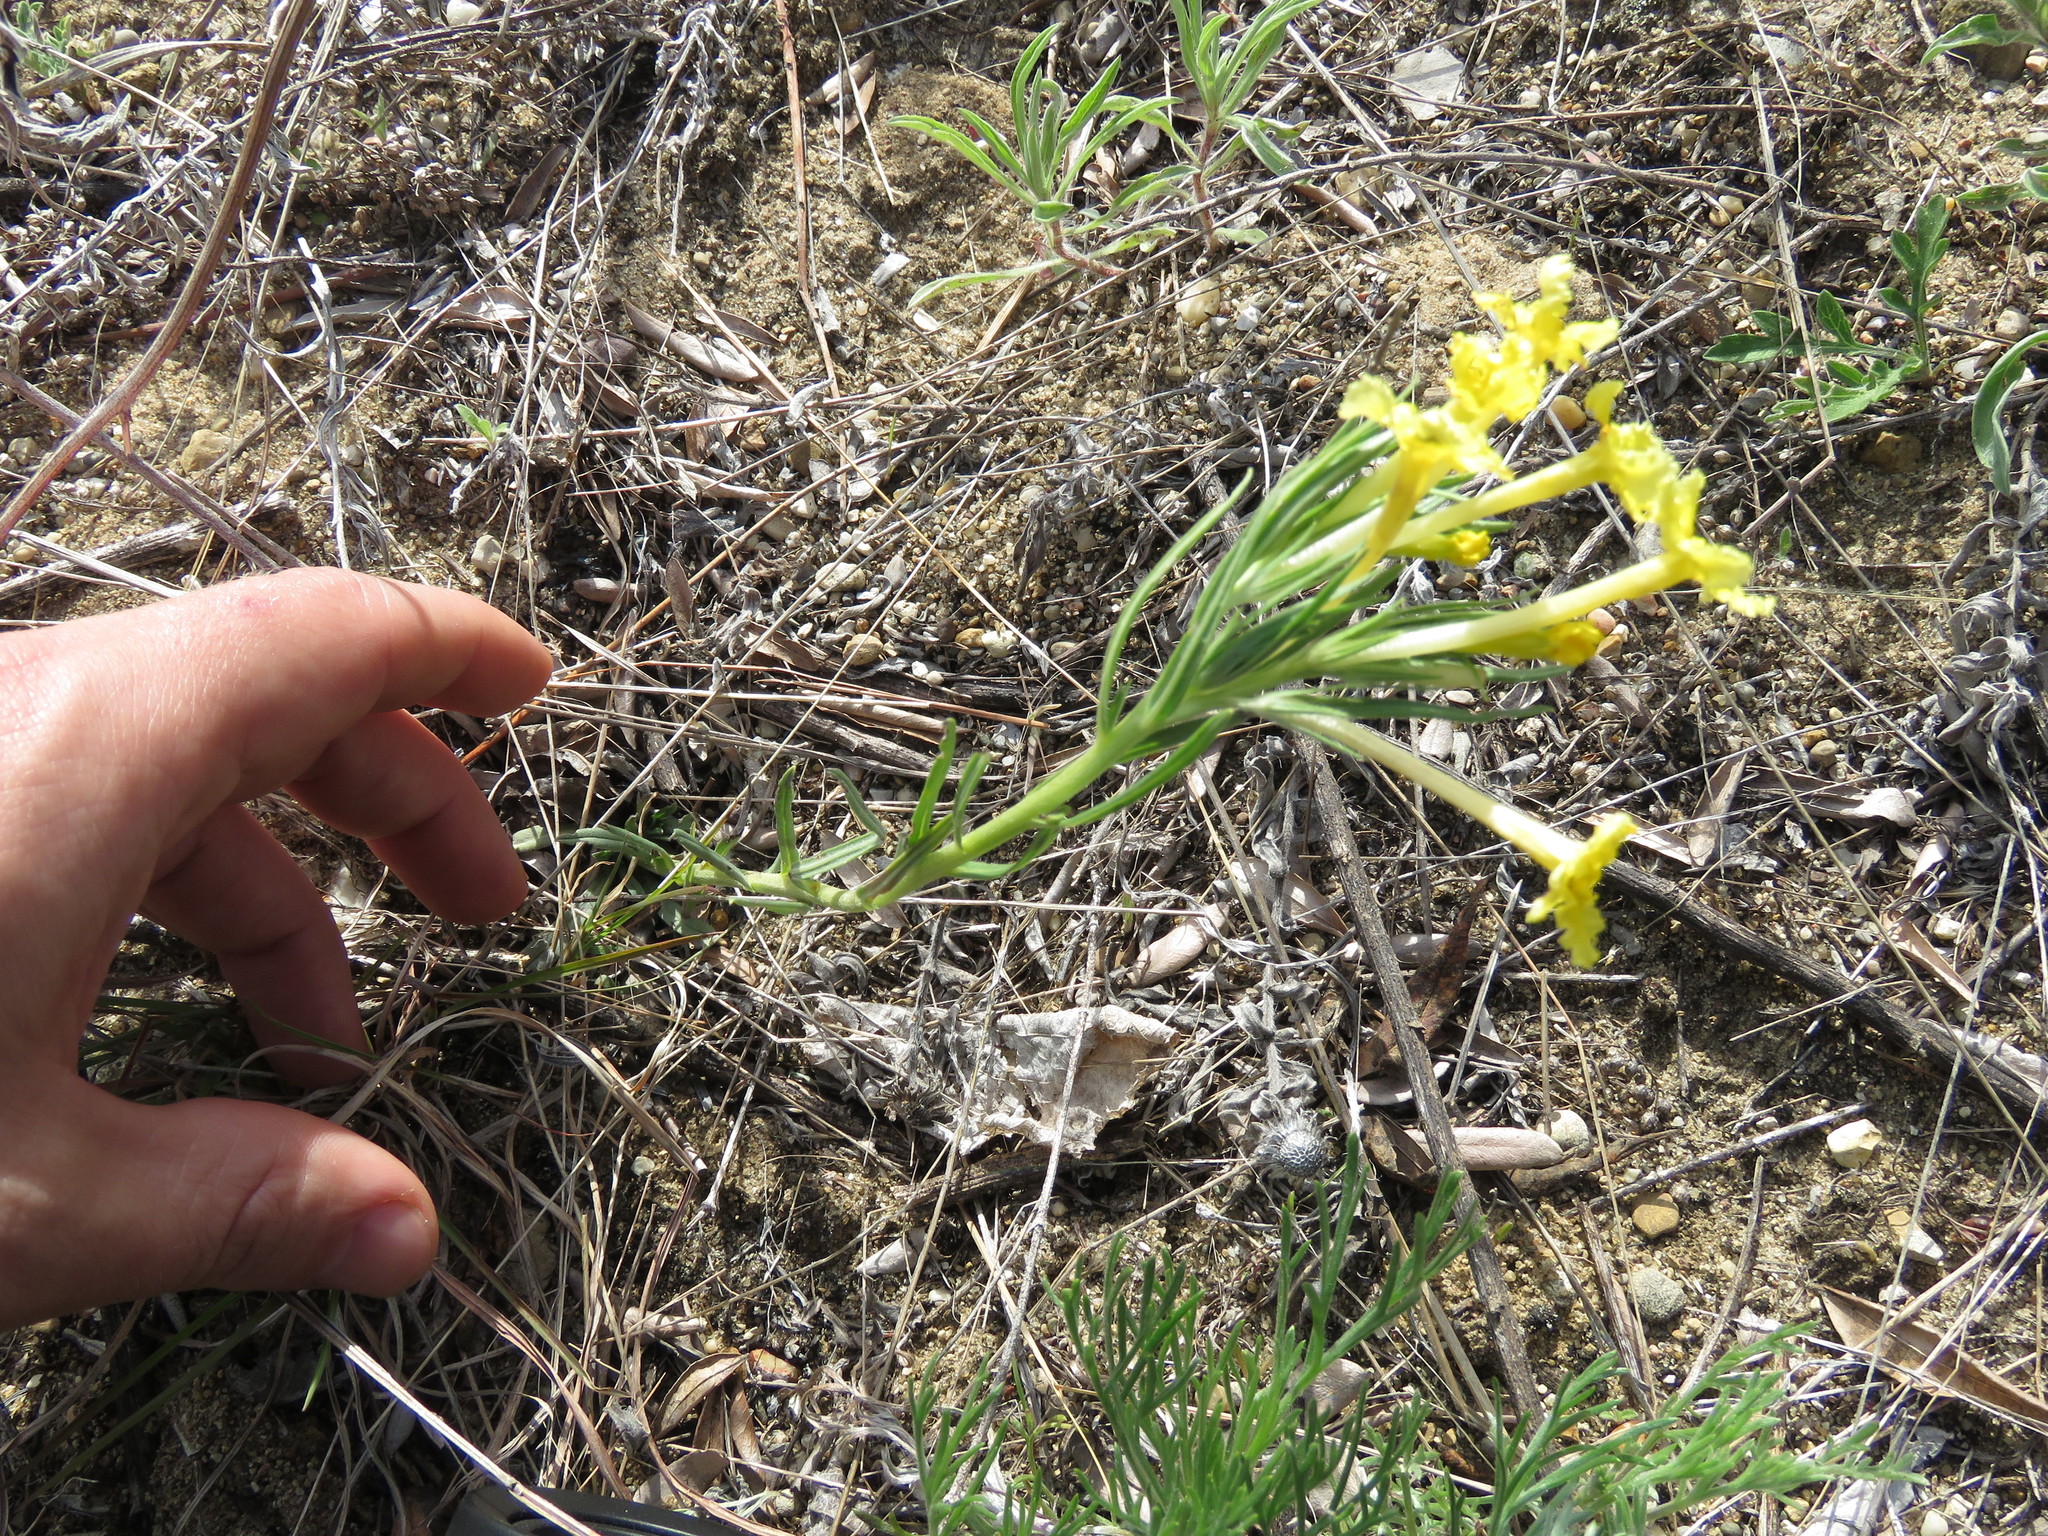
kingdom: Plantae
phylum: Tracheophyta
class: Magnoliopsida
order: Boraginales
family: Boraginaceae
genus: Lithospermum
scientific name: Lithospermum incisum
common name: Fringed gromwell
